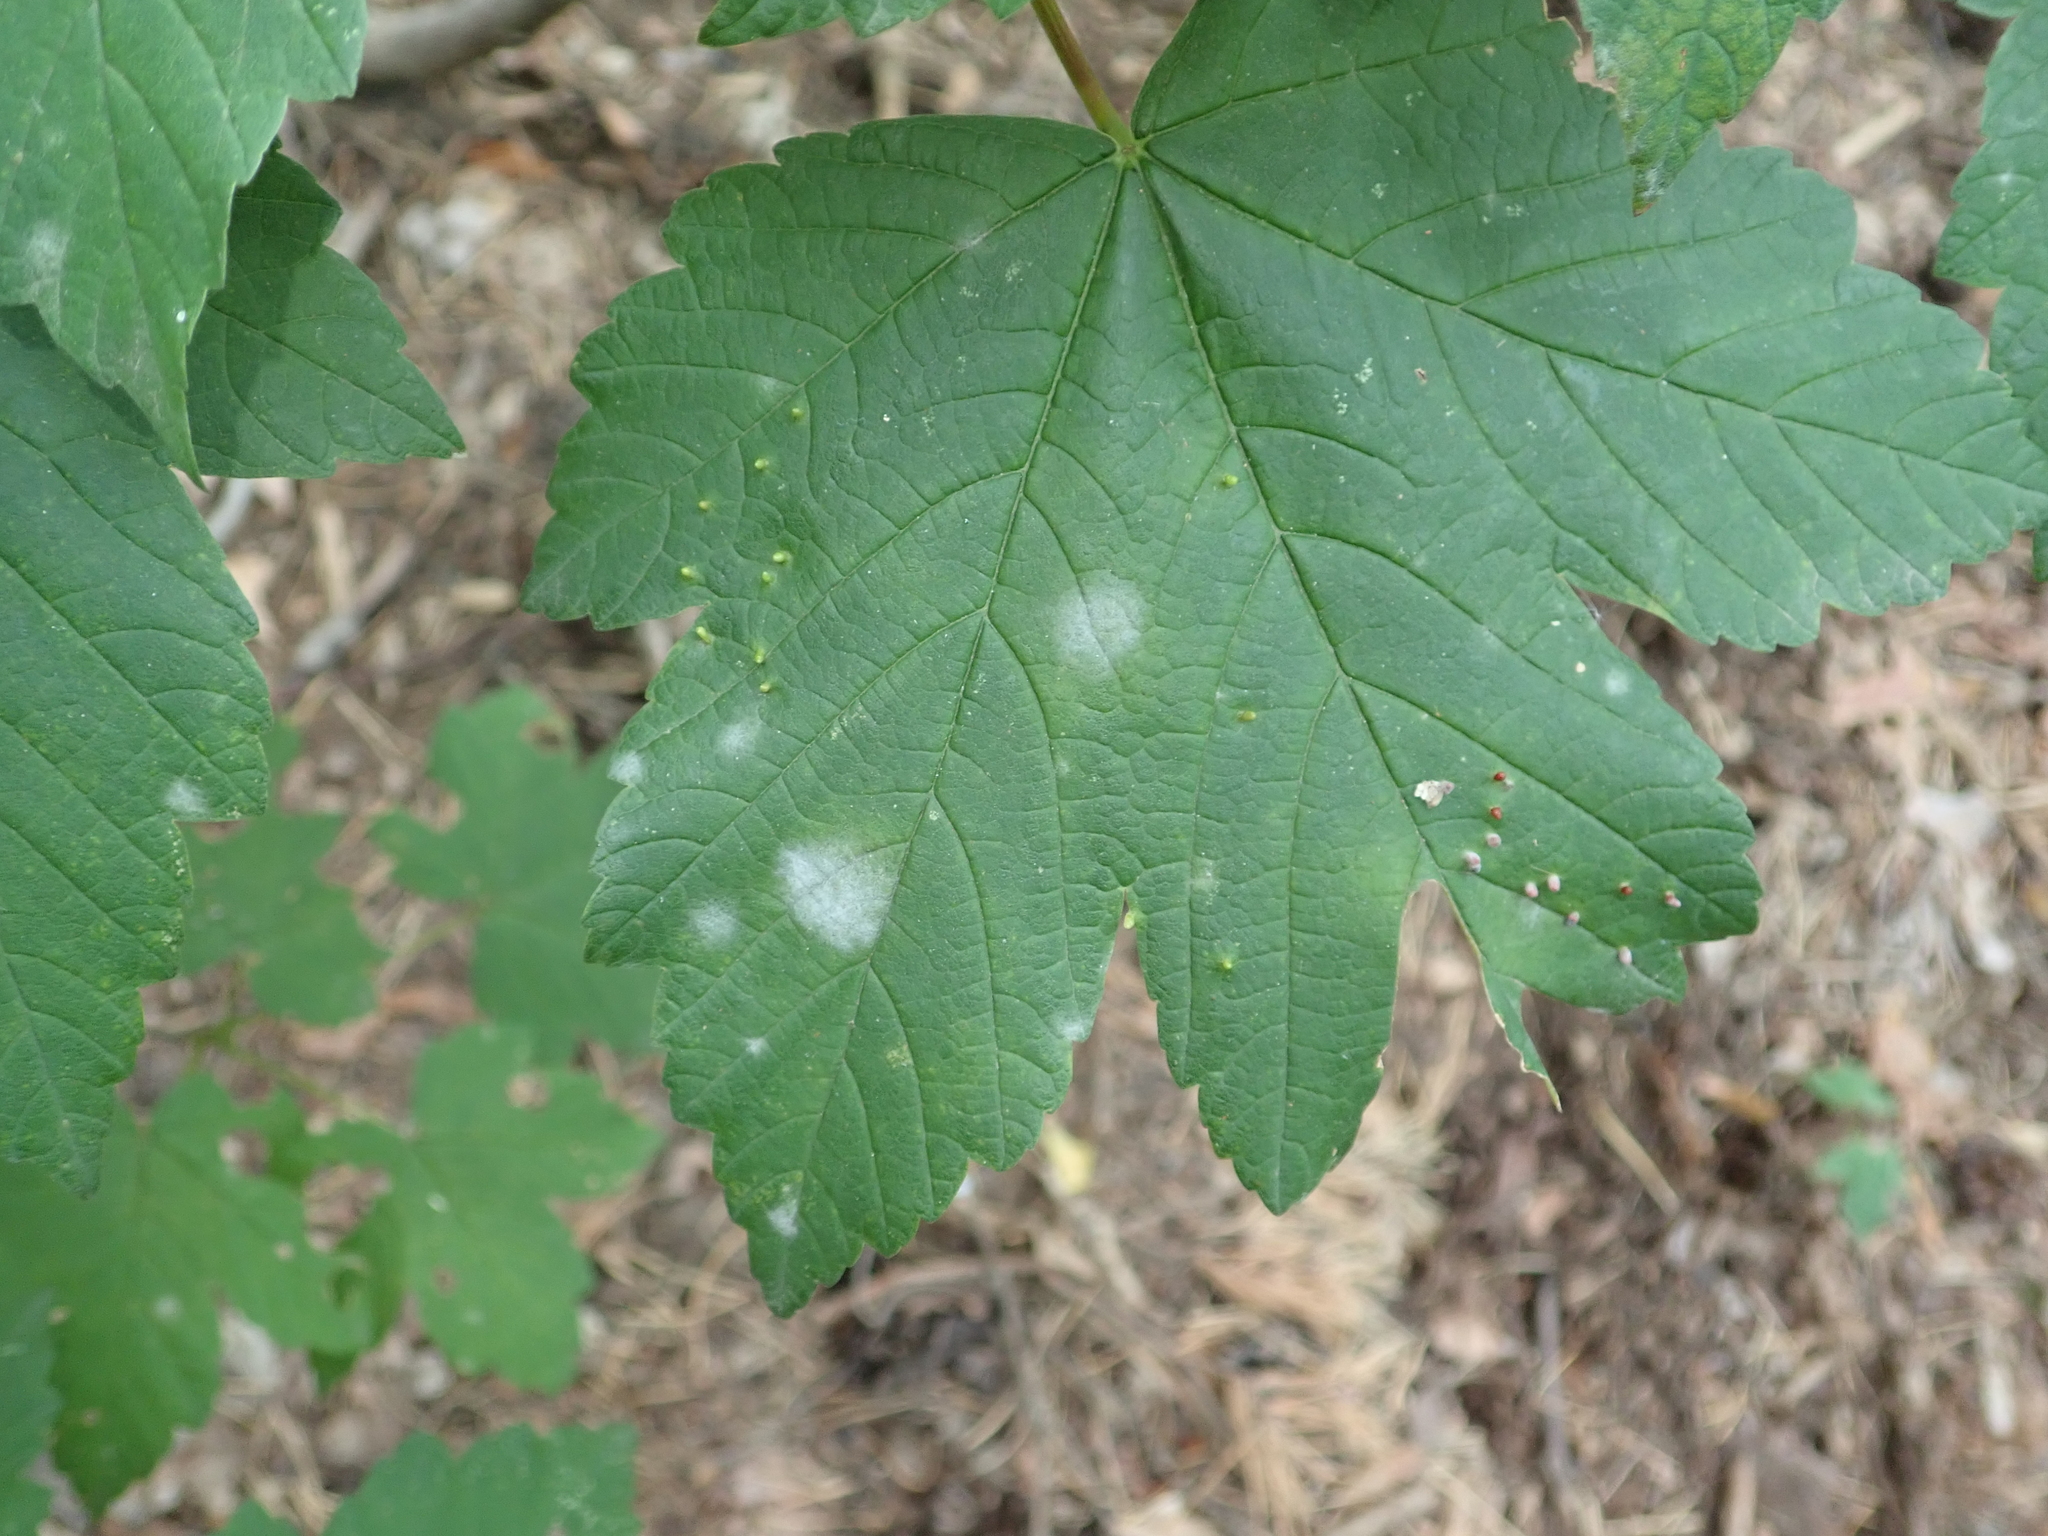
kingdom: Plantae
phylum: Tracheophyta
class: Magnoliopsida
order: Sapindales
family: Sapindaceae
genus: Acer
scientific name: Acer pseudoplatanus
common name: Sycamore
